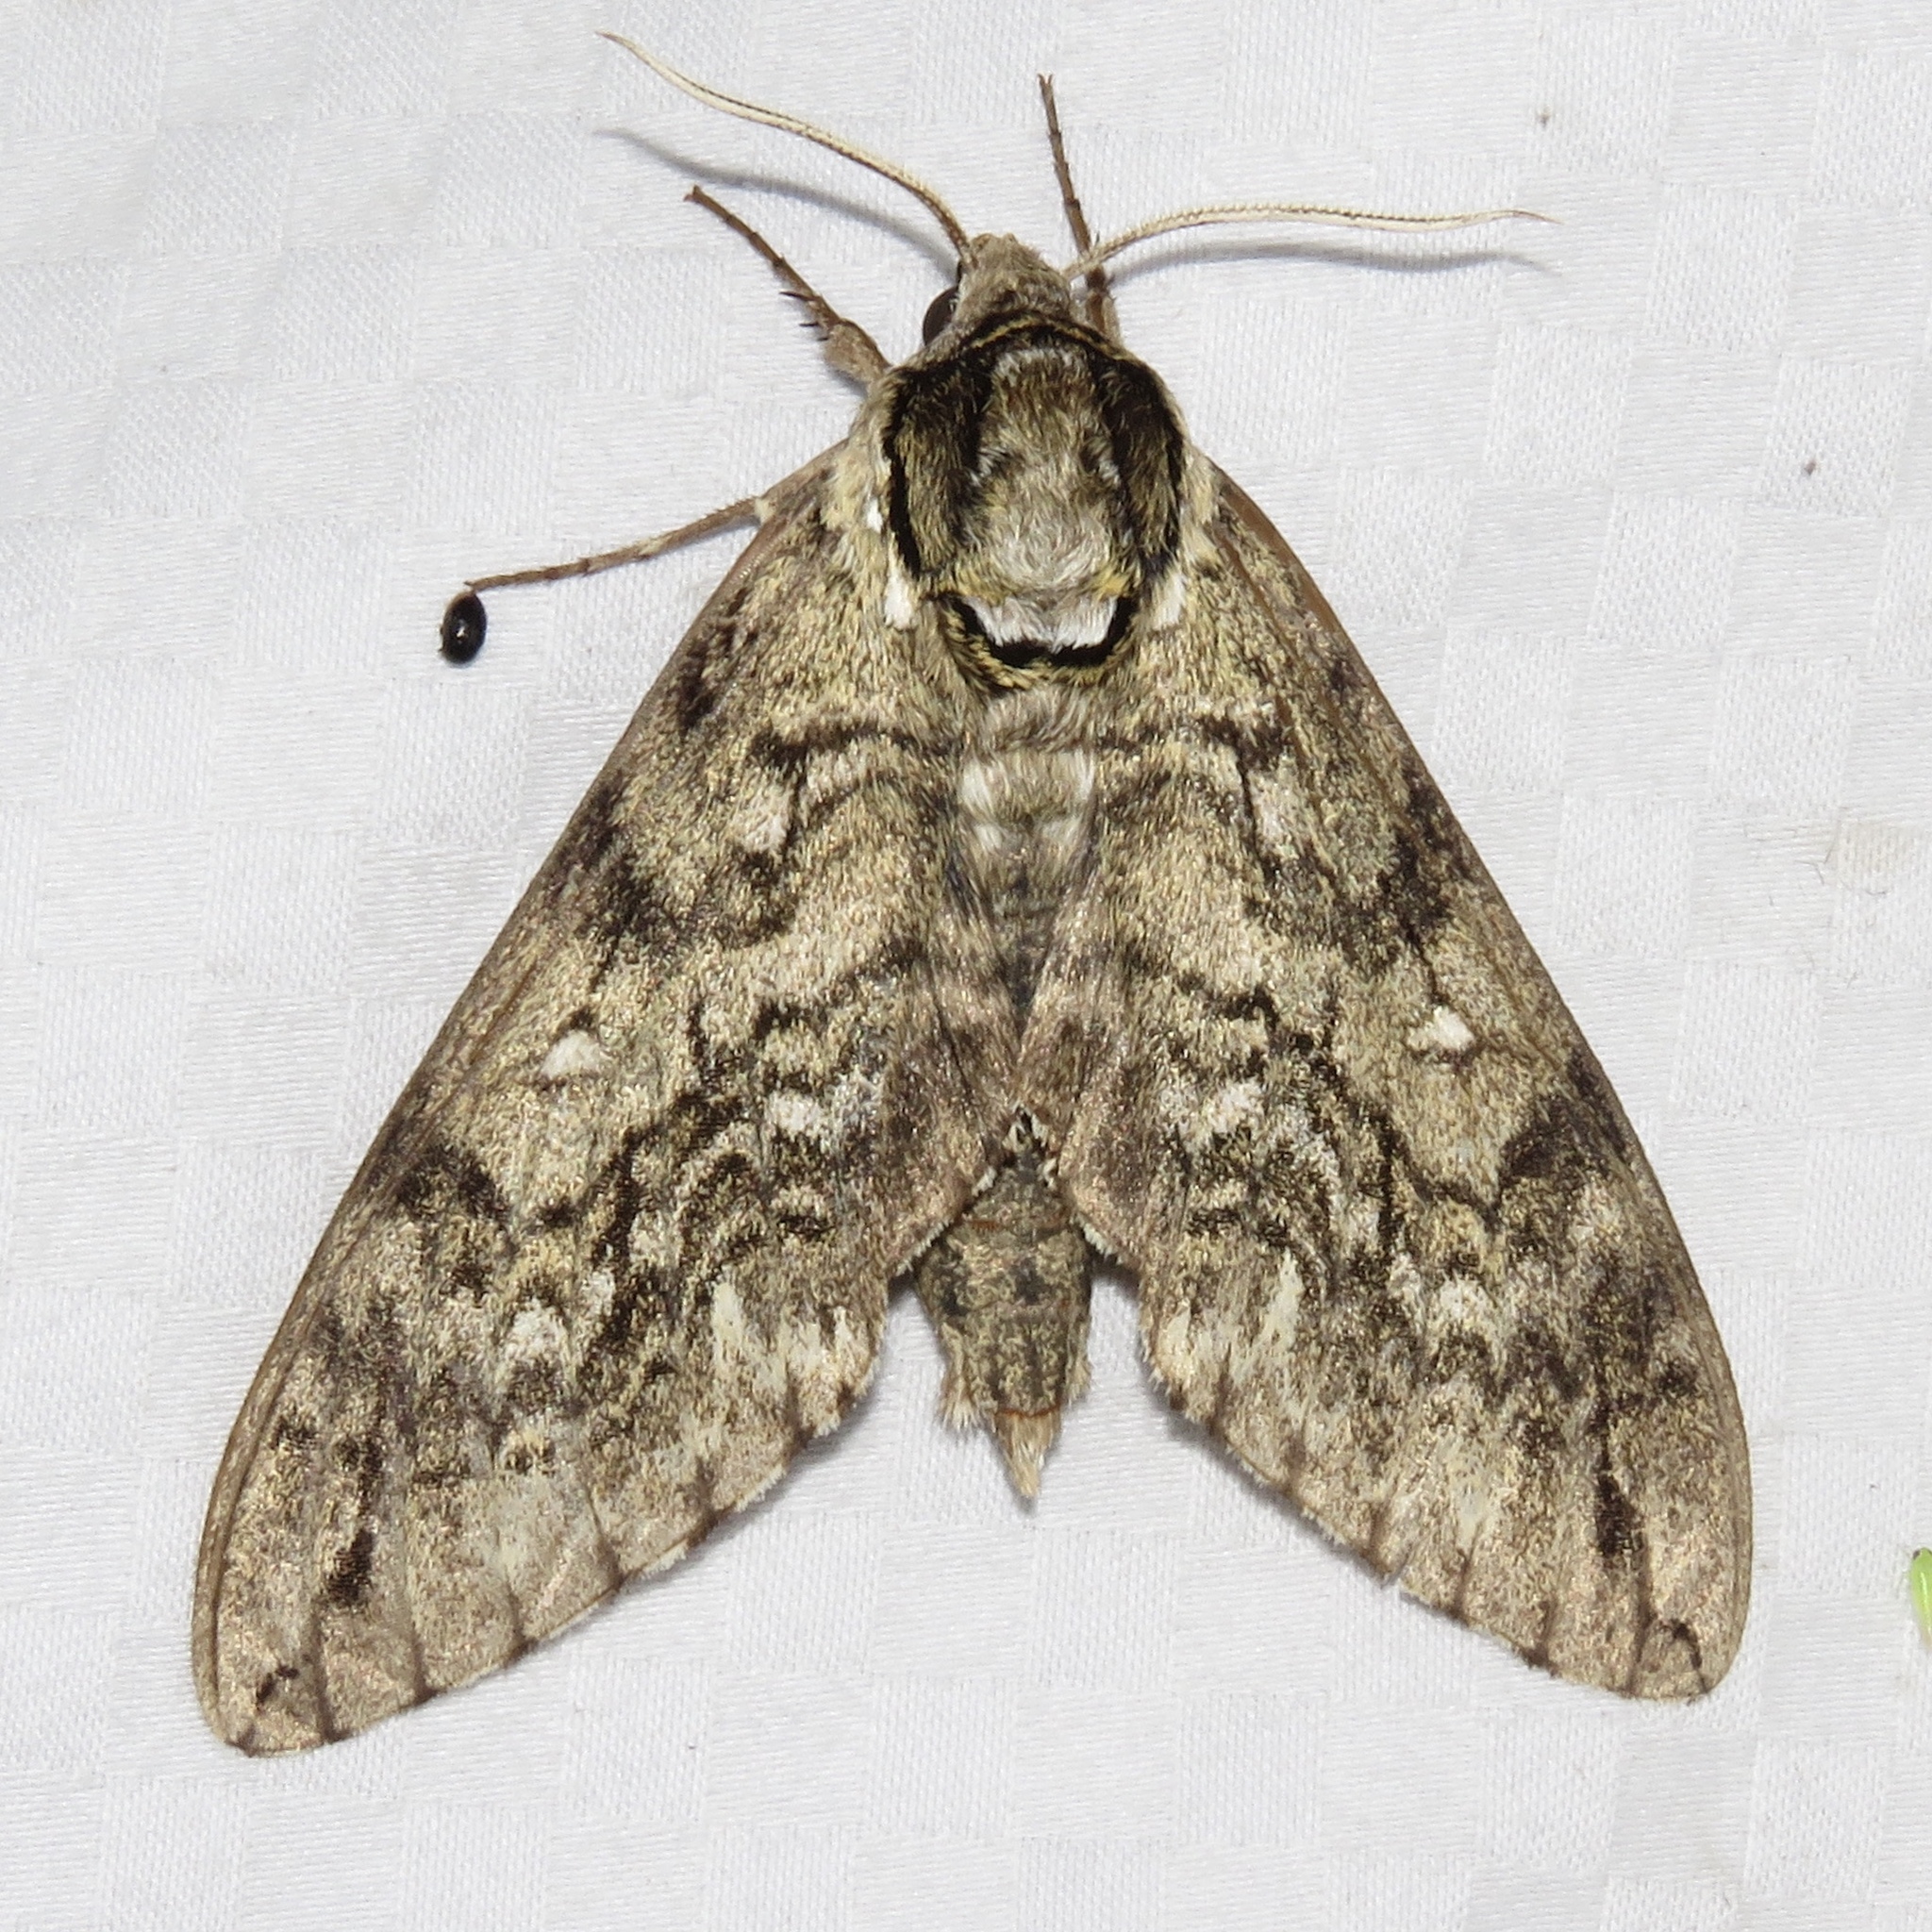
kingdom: Animalia
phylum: Arthropoda
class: Insecta
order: Lepidoptera
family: Sphingidae
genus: Ceratomia
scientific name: Ceratomia undulosa
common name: Waved sphinx
